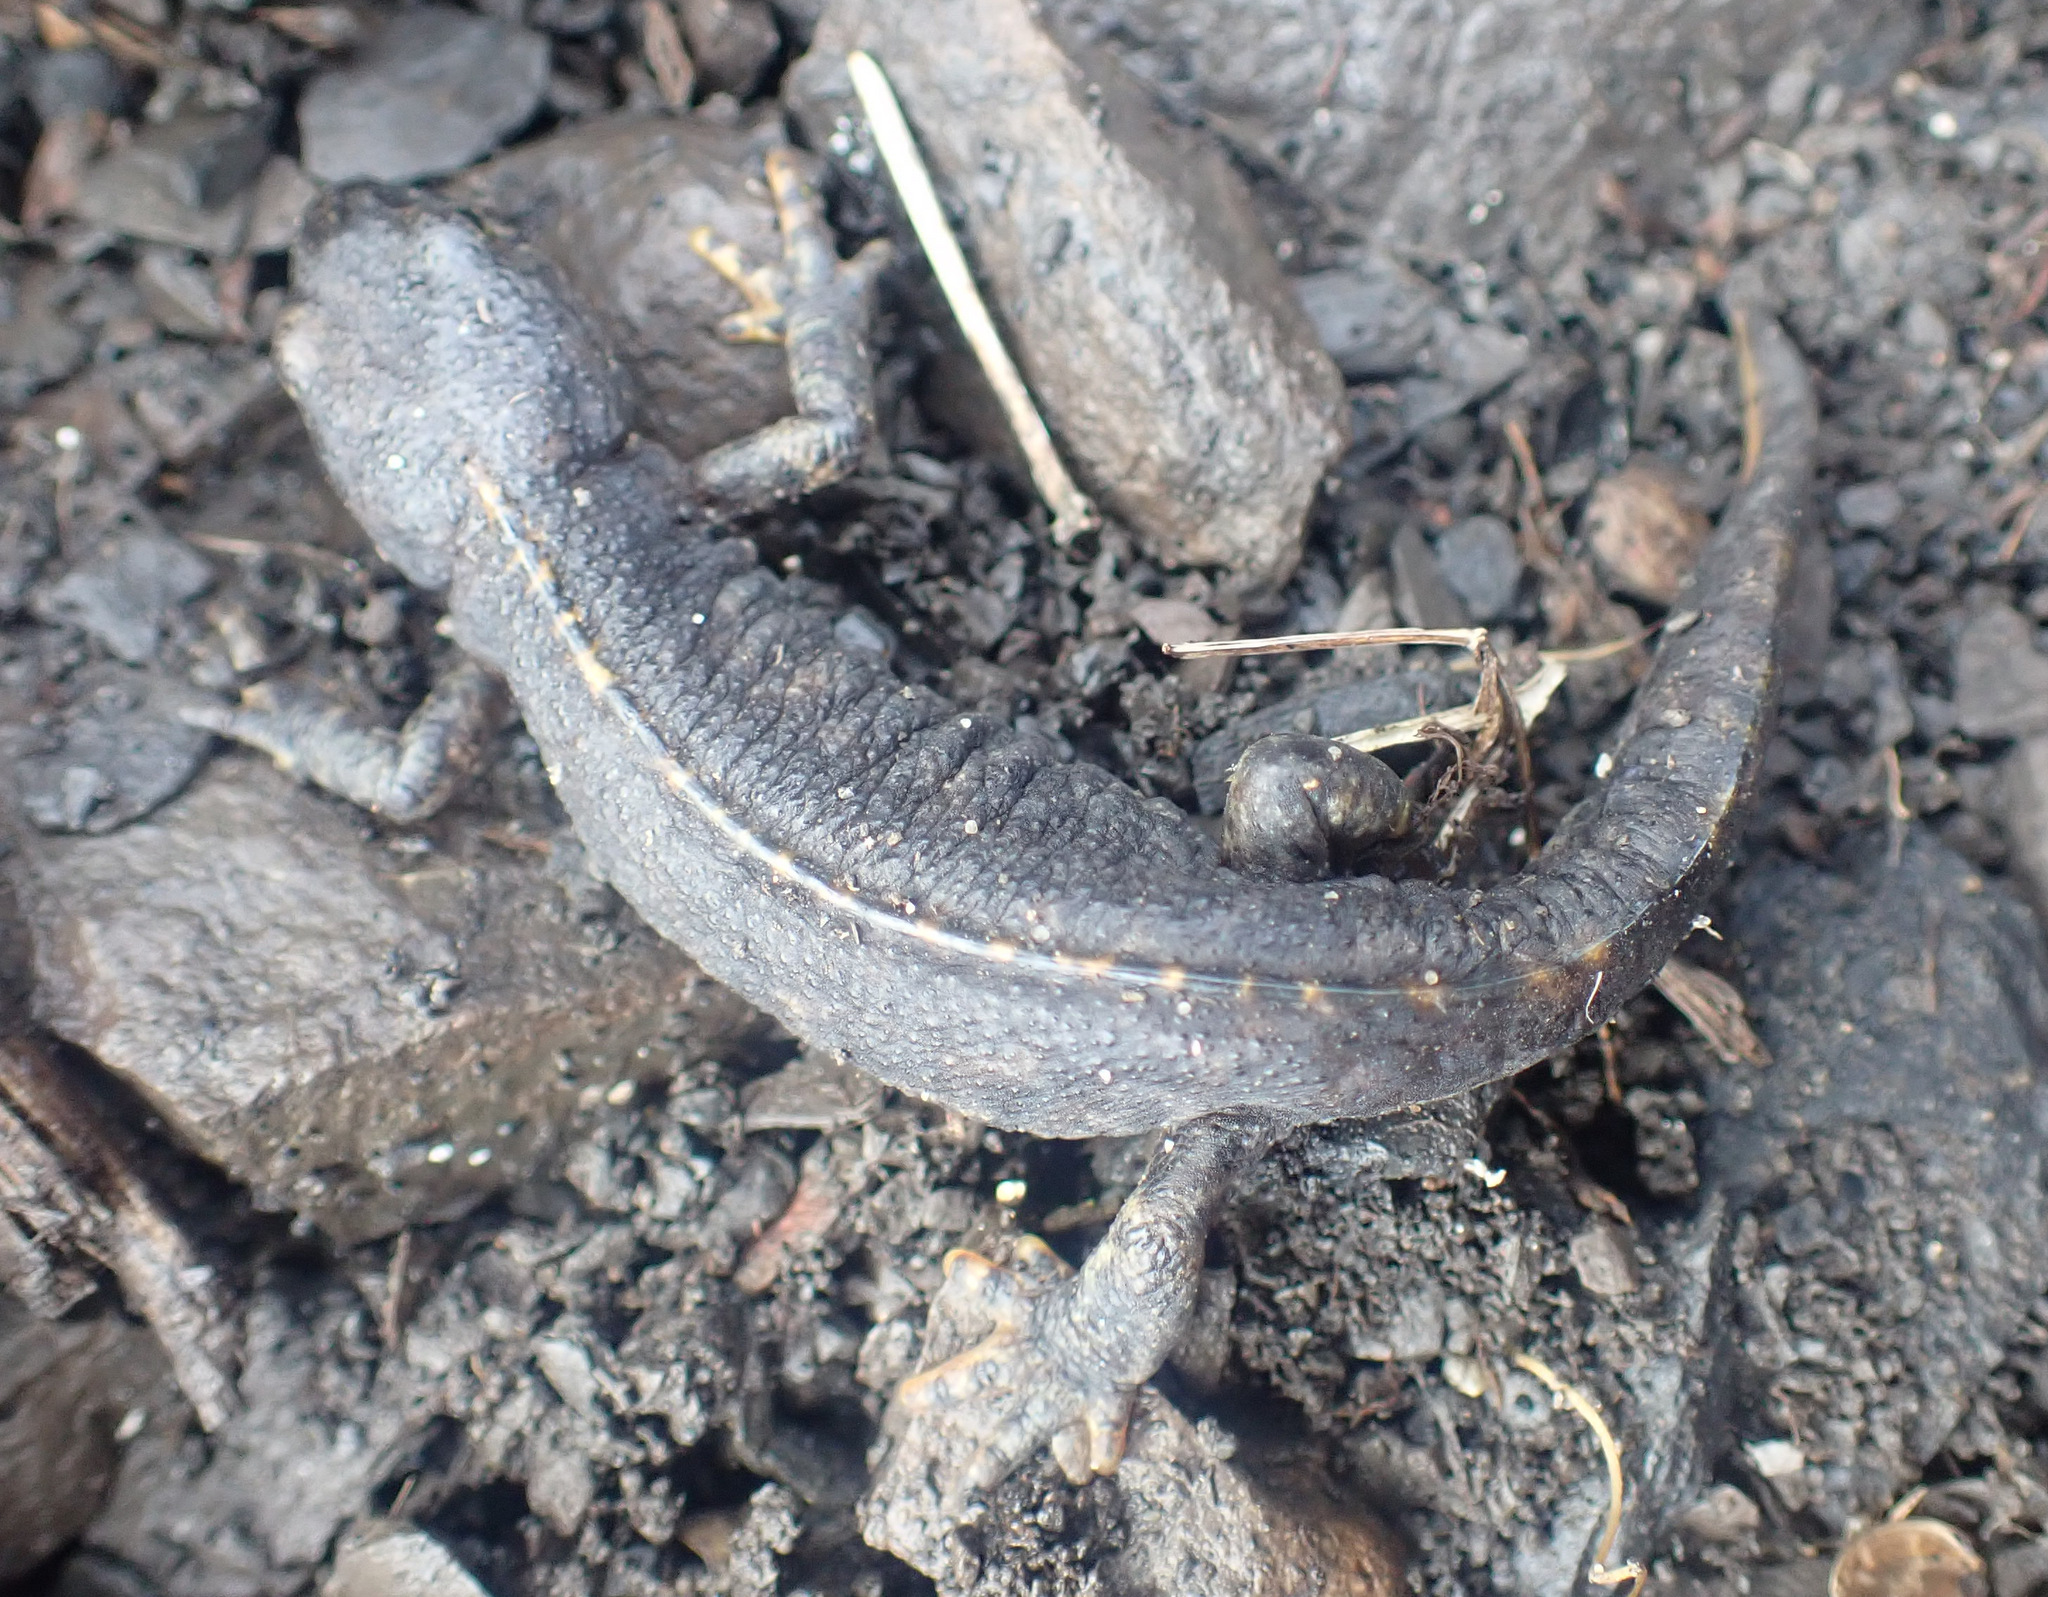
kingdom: Animalia
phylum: Chordata
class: Amphibia
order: Caudata
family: Salamandridae
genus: Ichthyosaura
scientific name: Ichthyosaura alpestris
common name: Alpine newt
